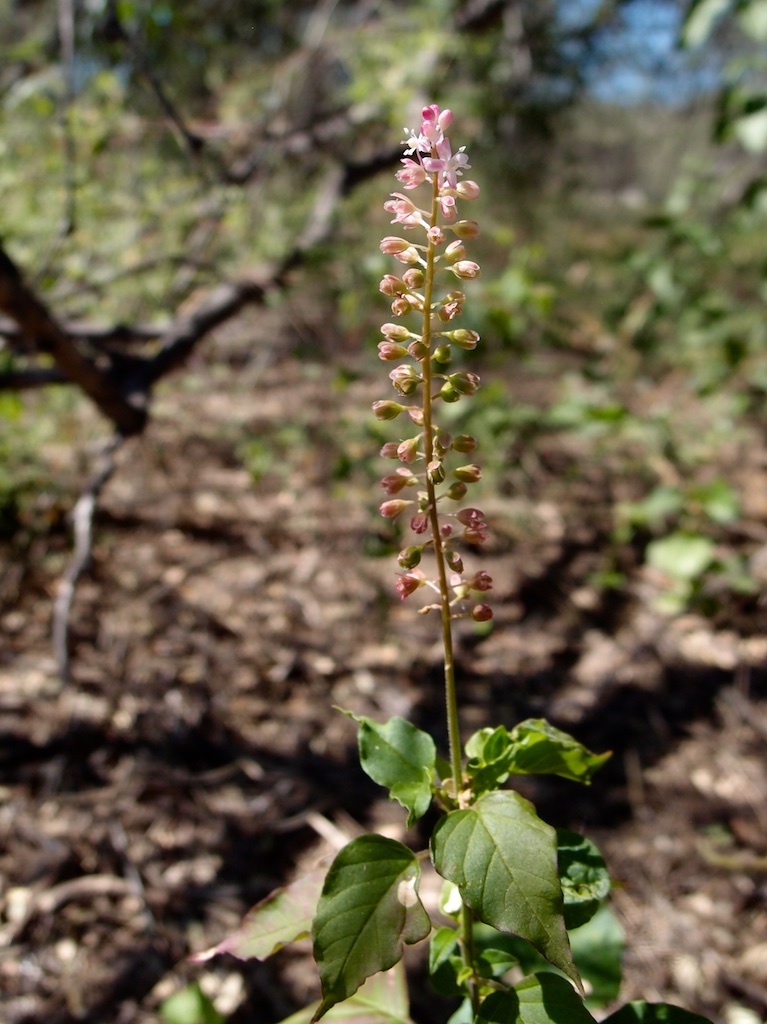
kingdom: Plantae
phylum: Tracheophyta
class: Magnoliopsida
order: Caryophyllales
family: Phytolaccaceae
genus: Rivina
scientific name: Rivina humilis
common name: Rougeplant
